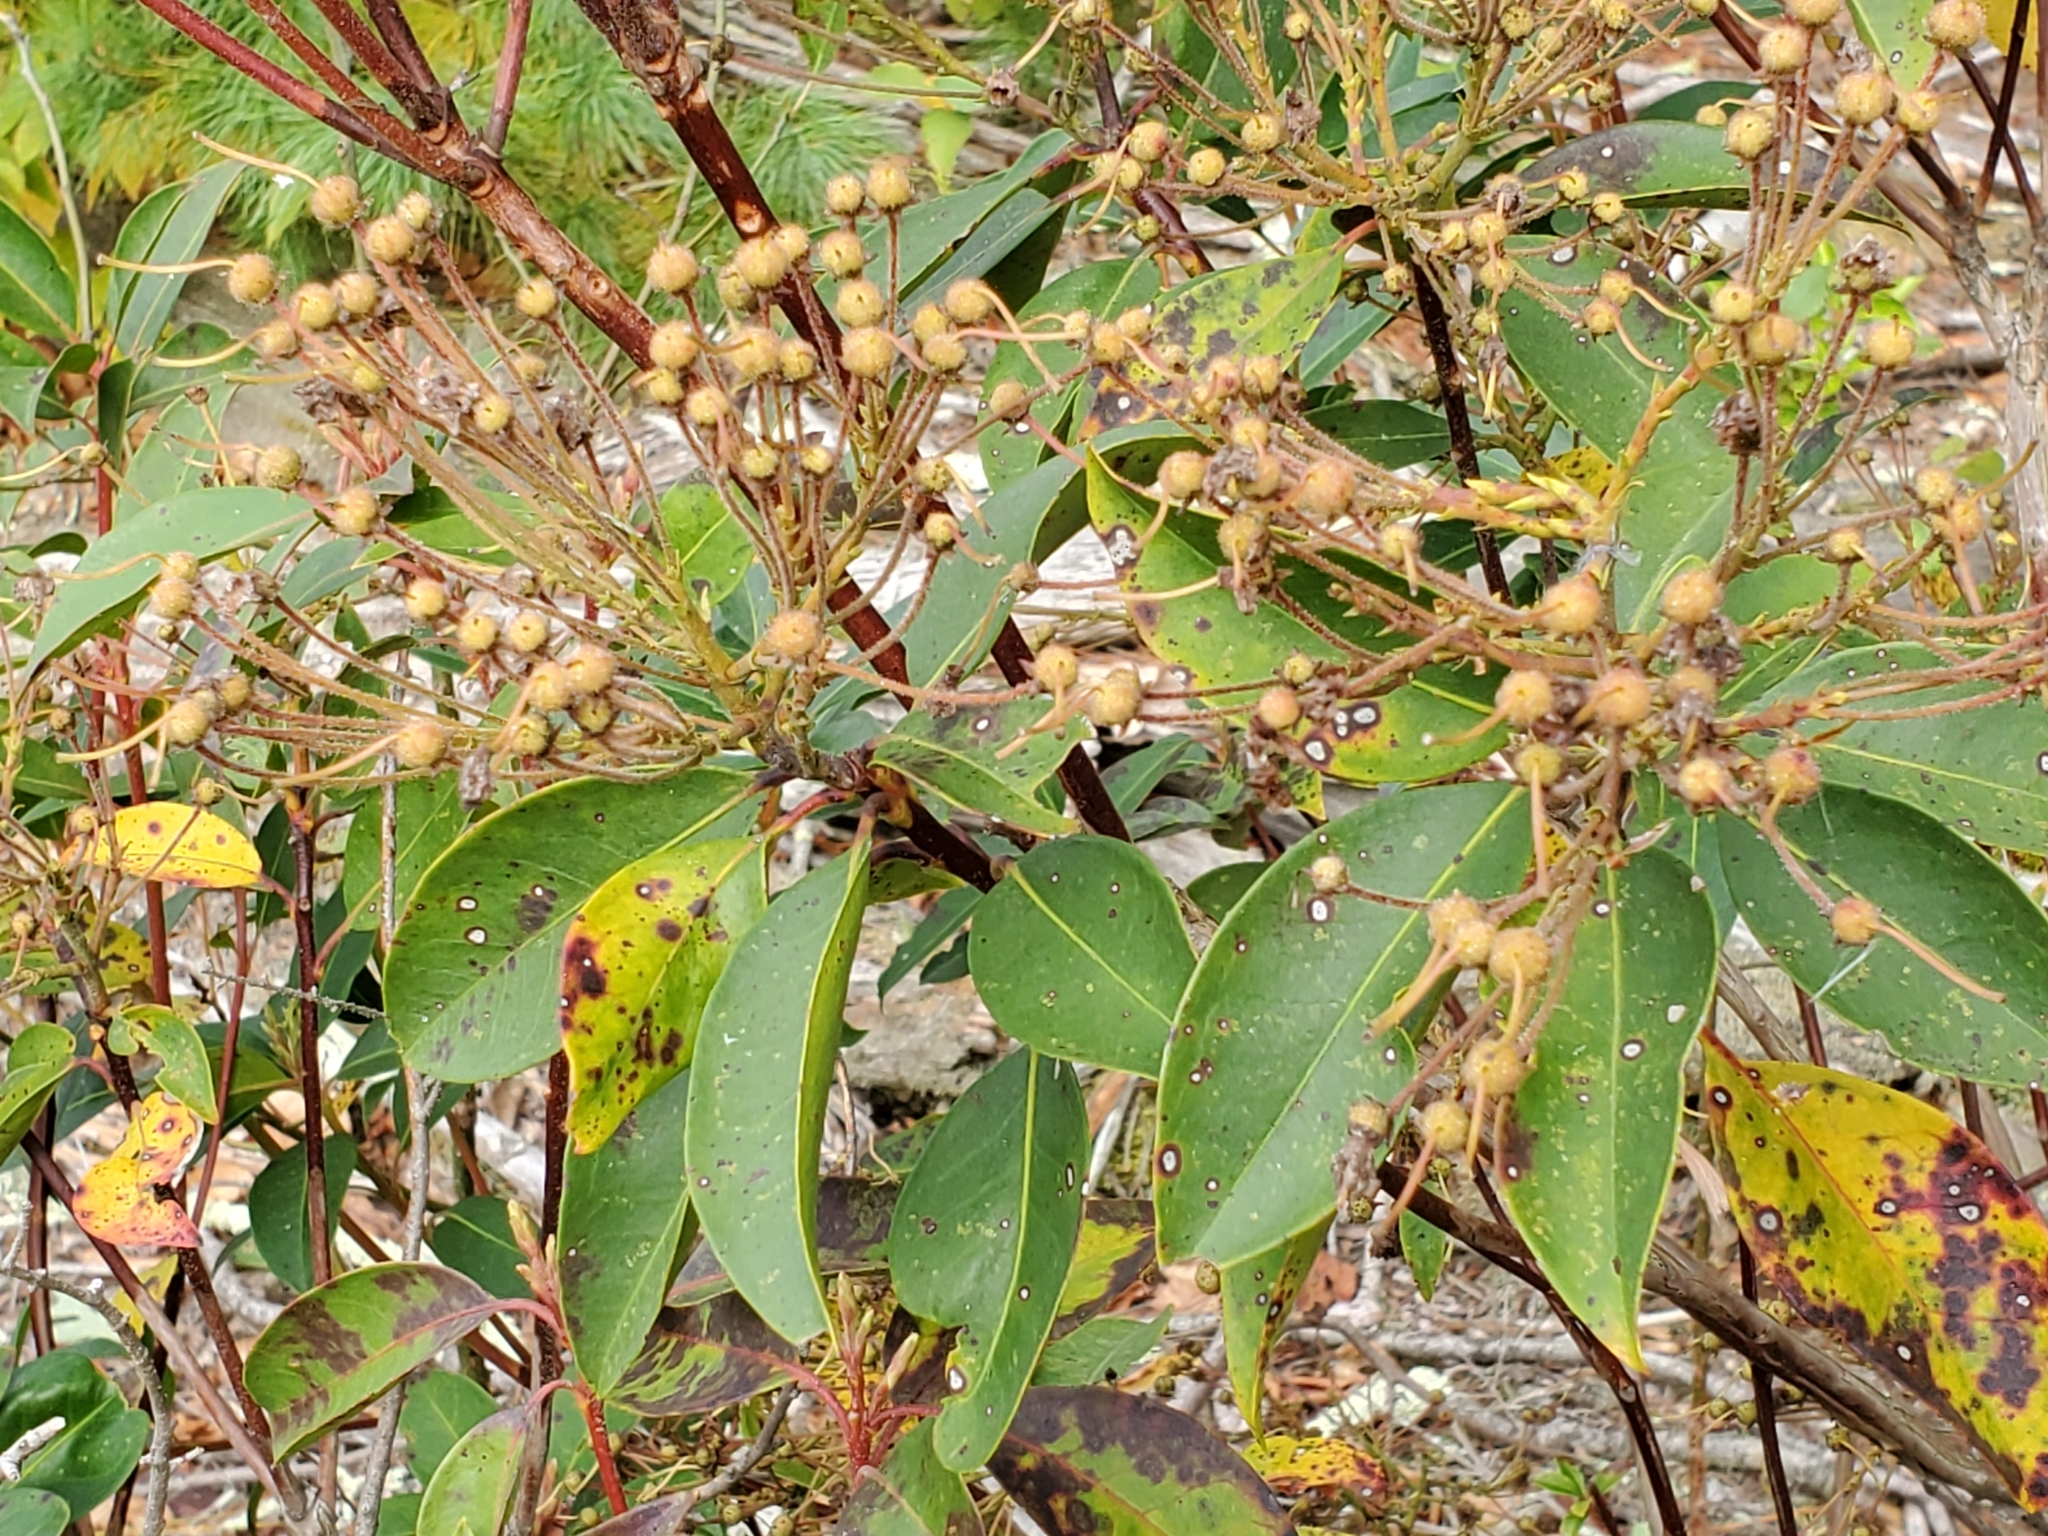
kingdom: Plantae
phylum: Tracheophyta
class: Magnoliopsida
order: Ericales
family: Ericaceae
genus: Kalmia
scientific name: Kalmia latifolia
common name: Mountain-laurel
